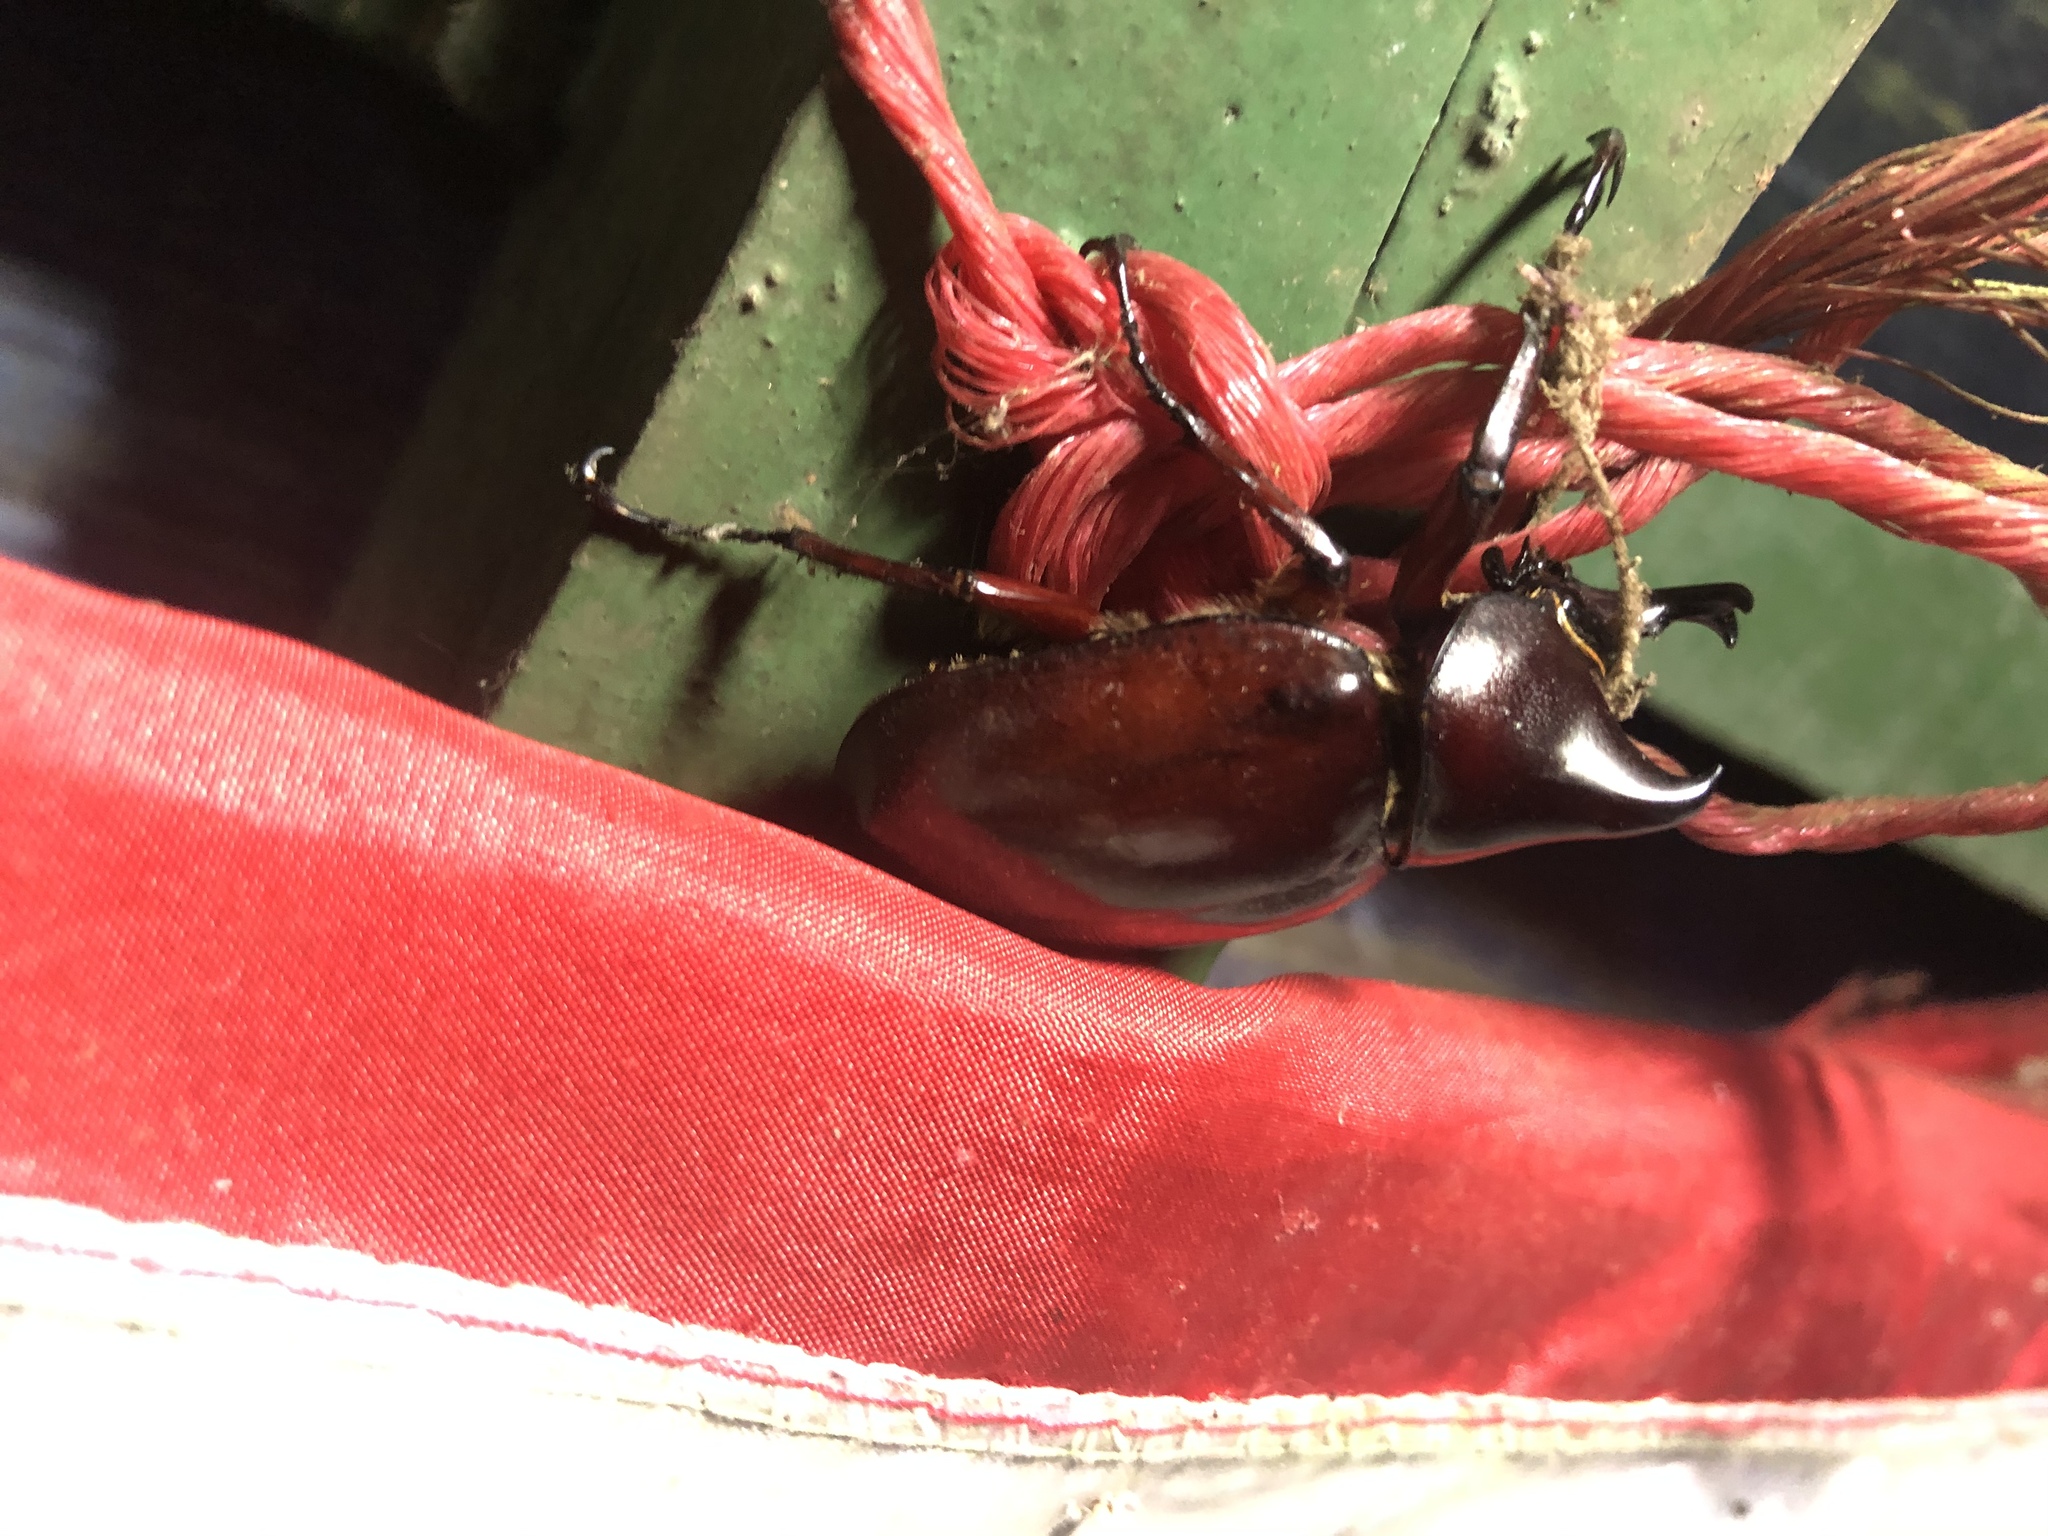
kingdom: Animalia
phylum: Arthropoda
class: Insecta
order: Coleoptera
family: Scarabaeidae
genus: Xylotrupes
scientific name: Xylotrupes gideon
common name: Elephant beetle
